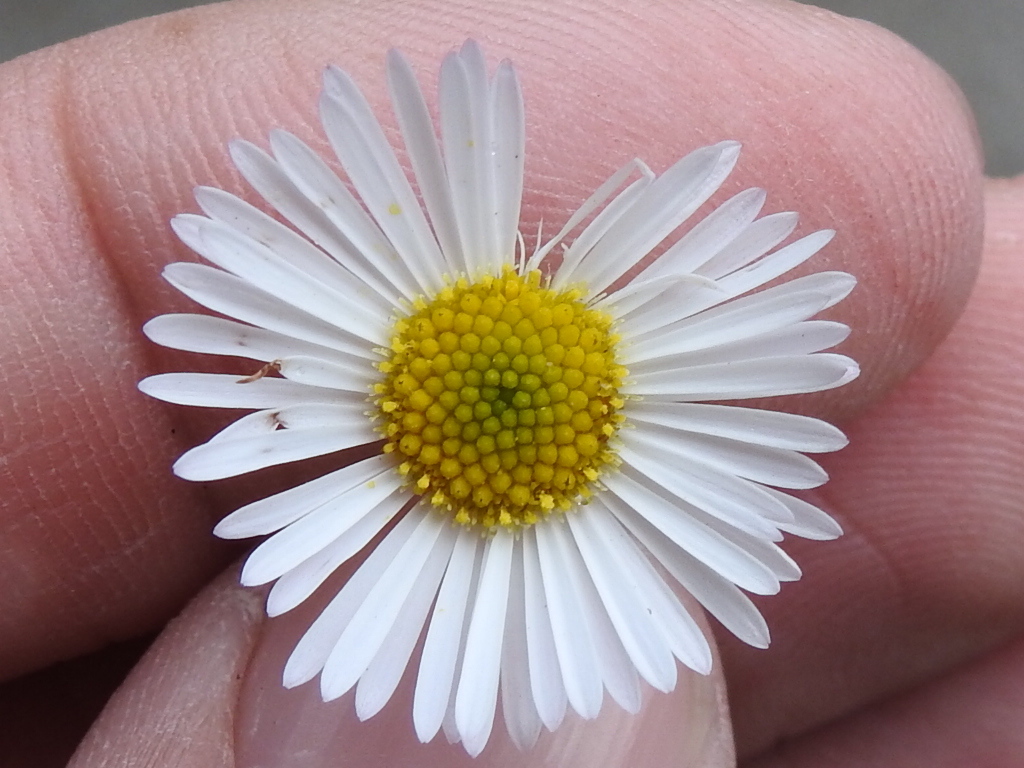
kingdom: Plantae
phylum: Tracheophyta
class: Magnoliopsida
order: Asterales
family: Asteraceae
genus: Erigeron
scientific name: Erigeron karvinskianus
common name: Mexican fleabane
